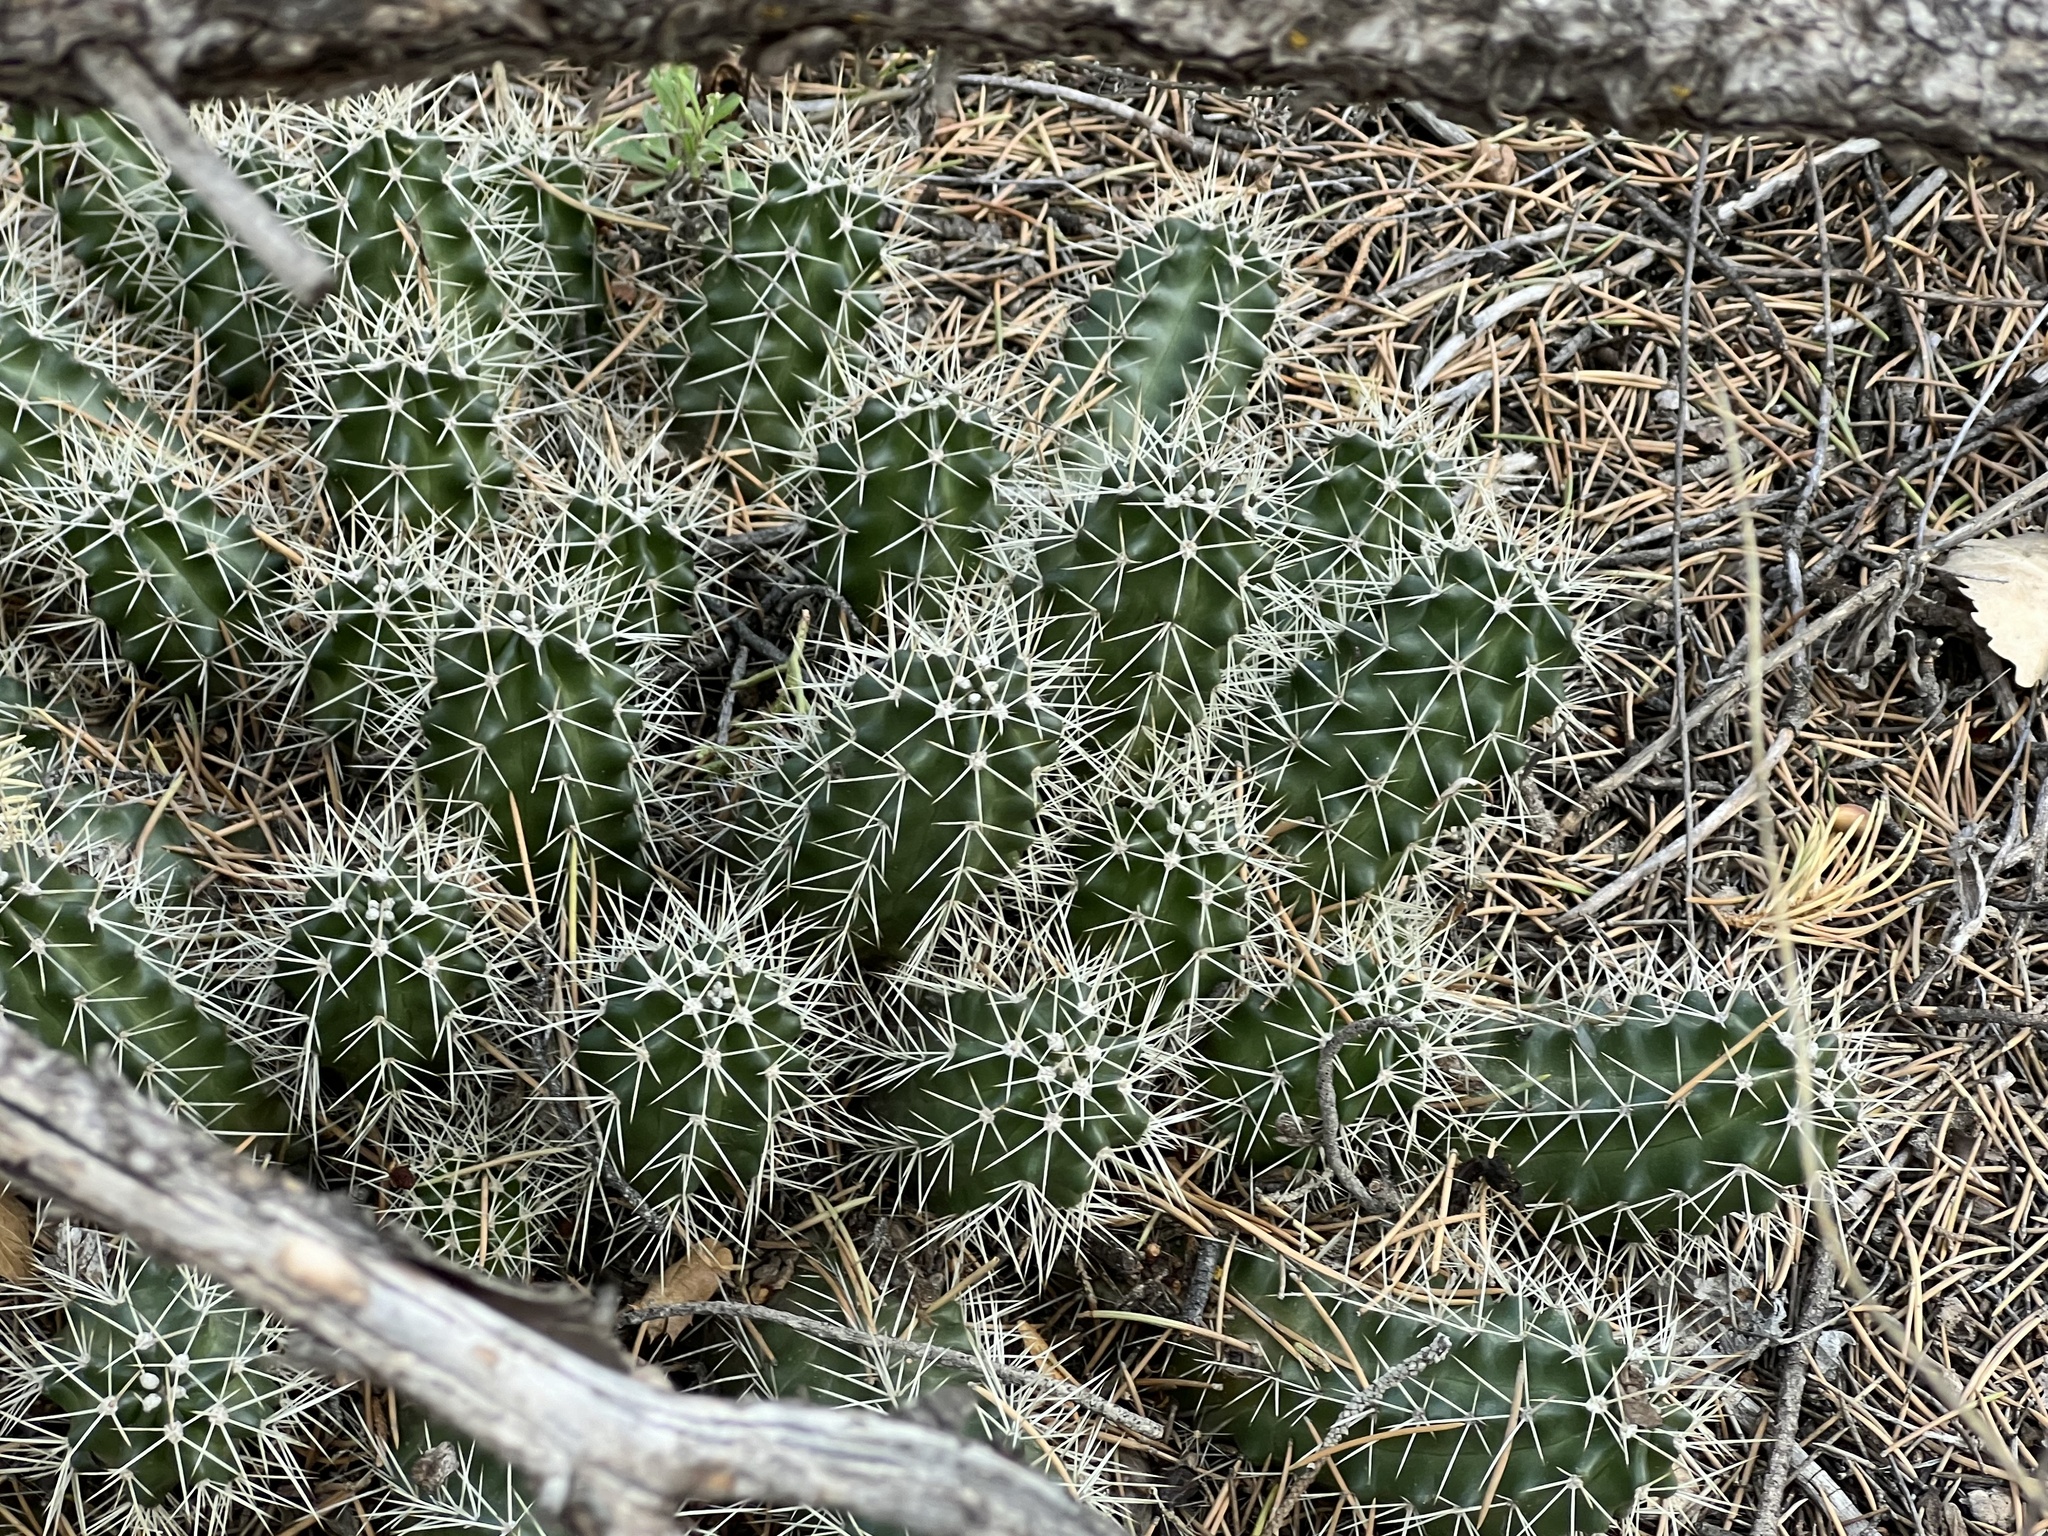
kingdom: Plantae
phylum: Tracheophyta
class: Magnoliopsida
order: Caryophyllales
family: Cactaceae
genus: Echinocereus
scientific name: Echinocereus triglochidiatus
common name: Claretcup hedgehog
